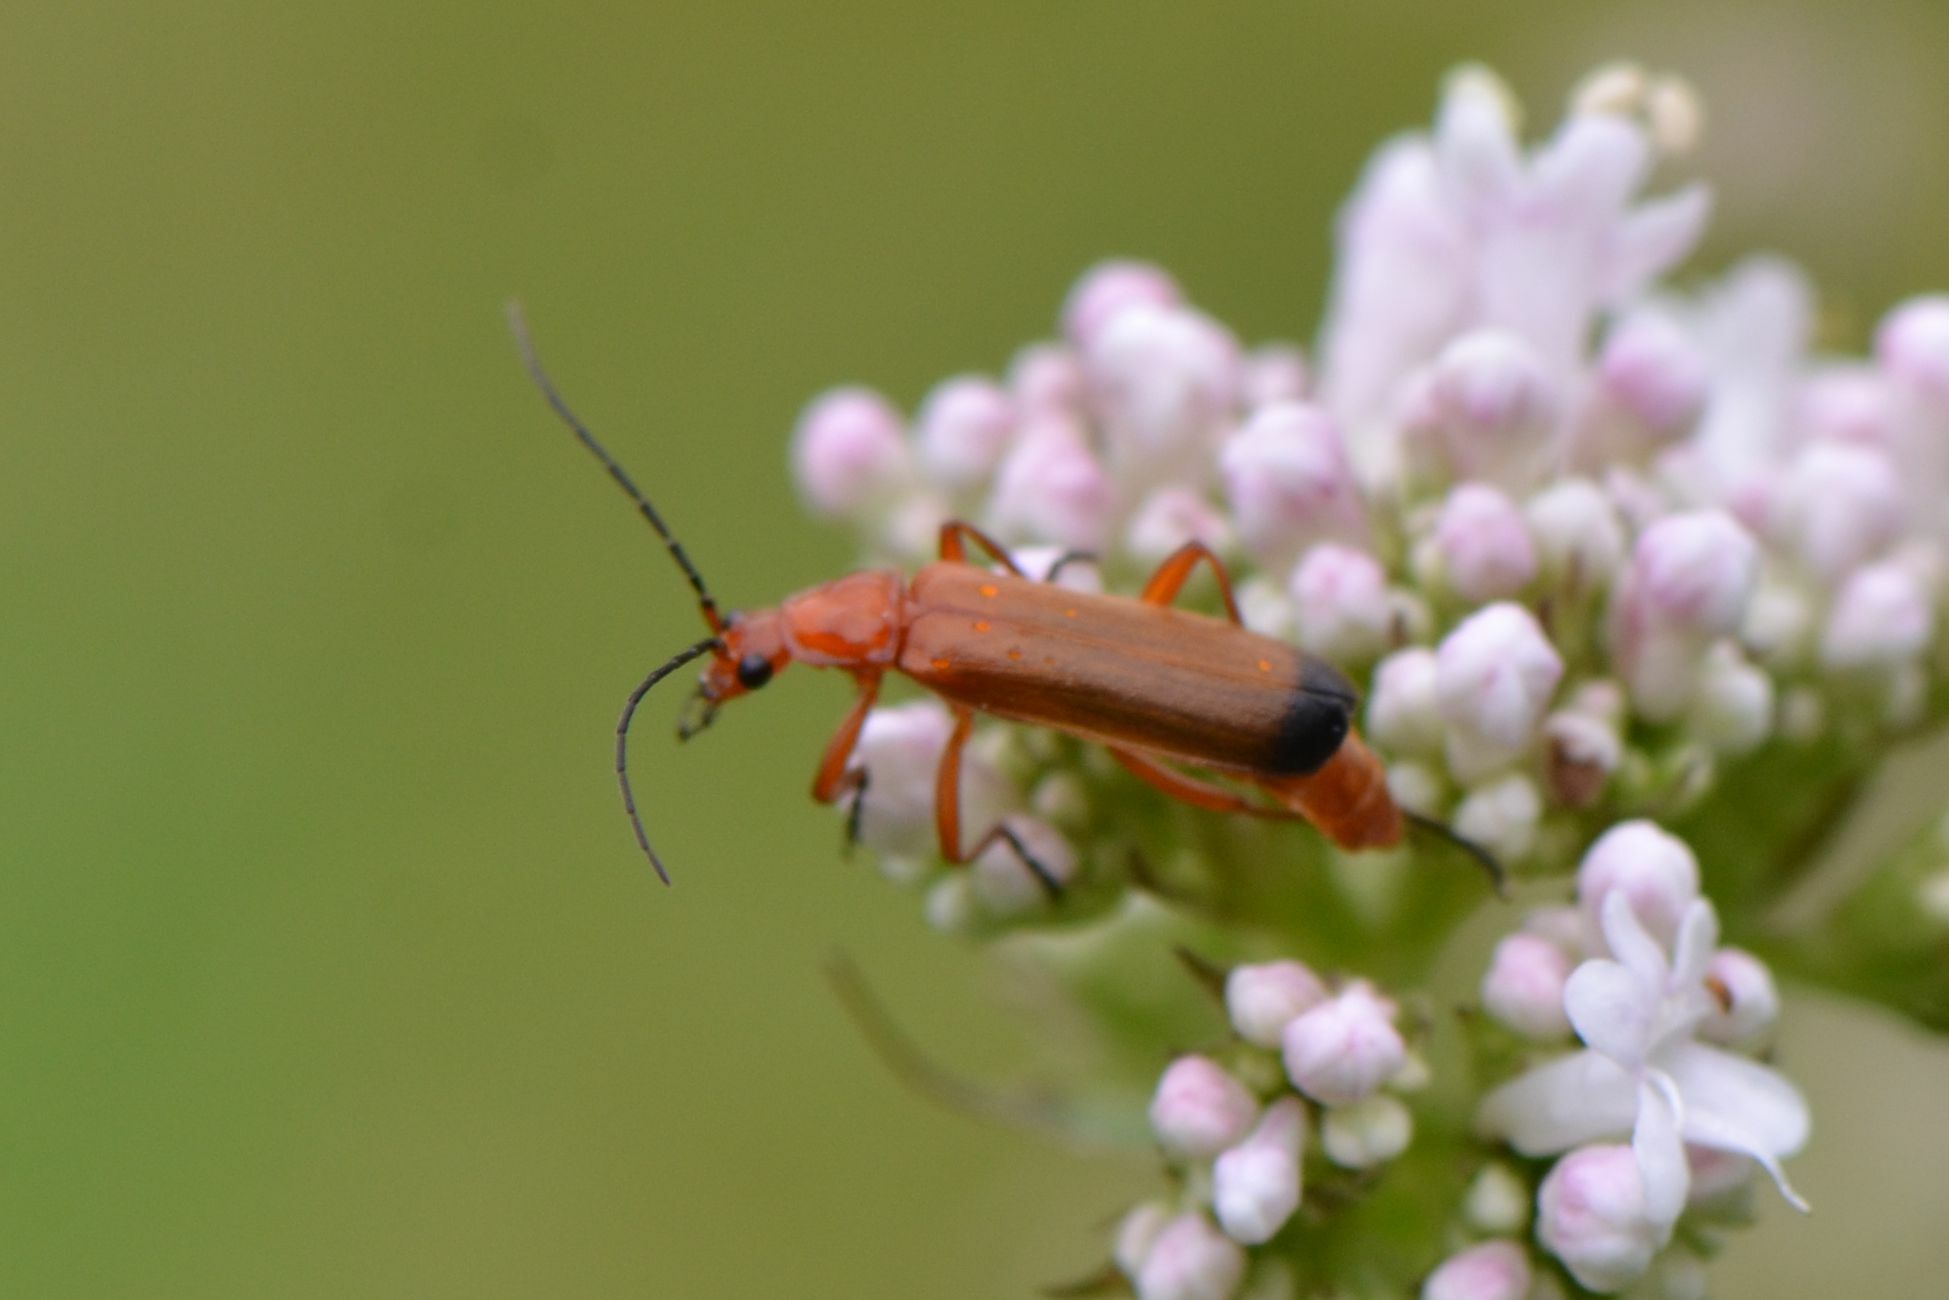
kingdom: Animalia
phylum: Arthropoda
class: Insecta
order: Coleoptera
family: Cantharidae
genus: Rhagonycha
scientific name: Rhagonycha fulva
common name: Common red soldier beetle
